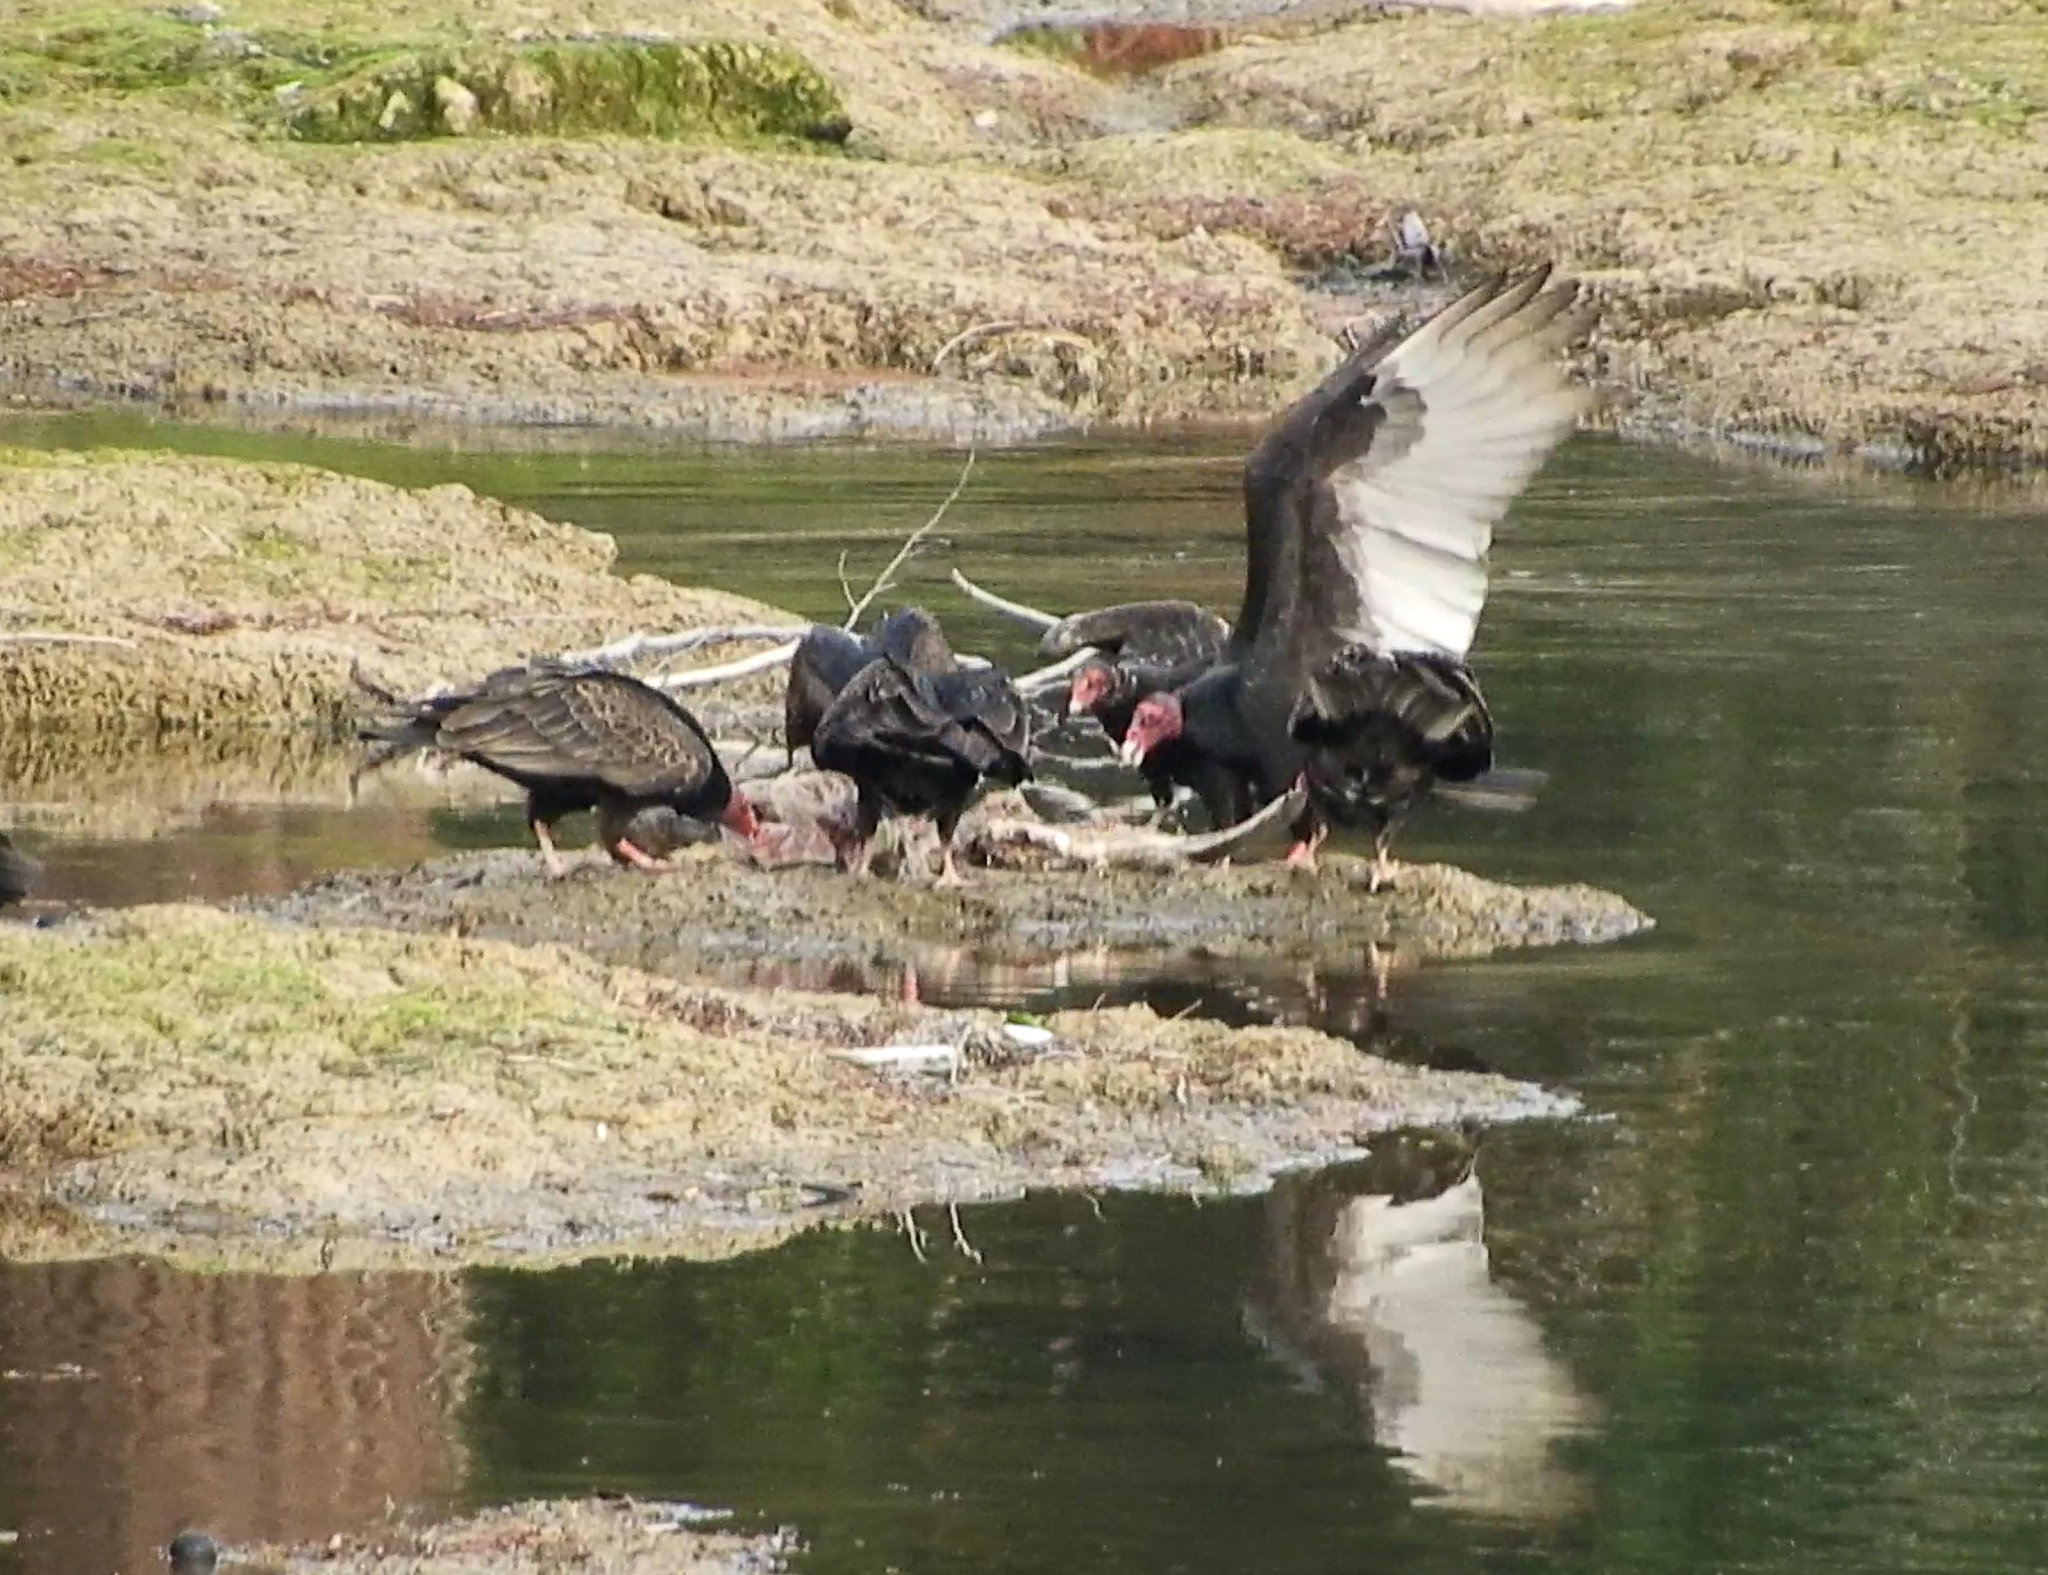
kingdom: Animalia
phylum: Chordata
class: Aves
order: Accipitriformes
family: Cathartidae
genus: Cathartes
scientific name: Cathartes aura
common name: Turkey vulture
